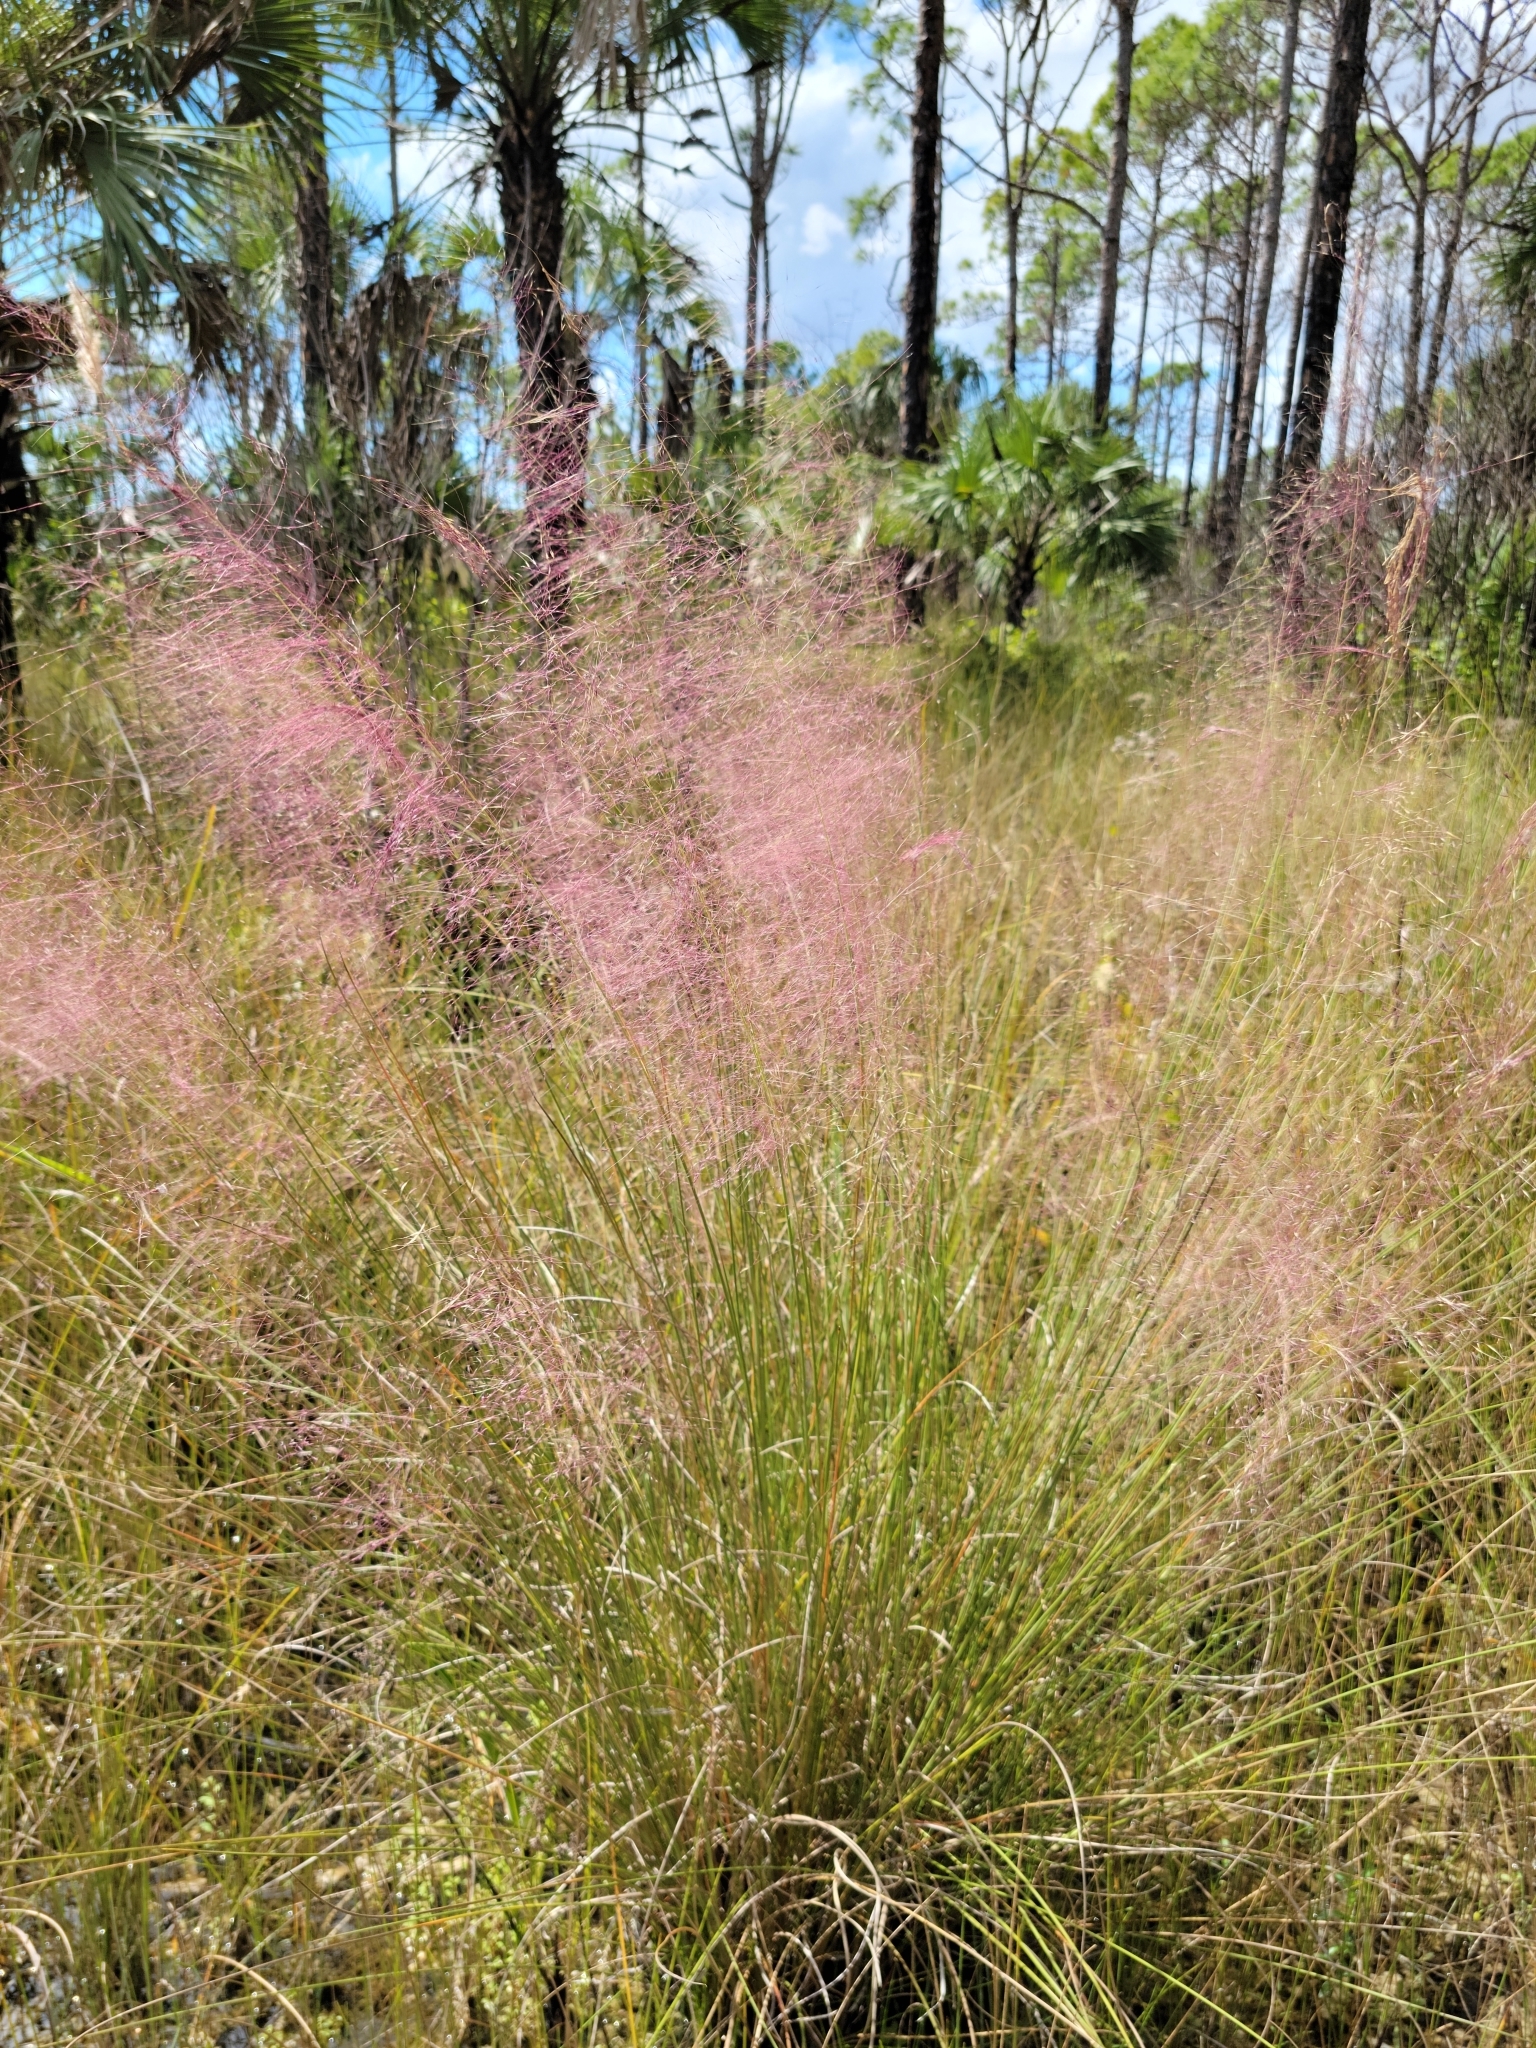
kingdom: Plantae
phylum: Tracheophyta
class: Liliopsida
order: Poales
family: Poaceae
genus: Muhlenbergia
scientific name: Muhlenbergia sericea
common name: Dune-hair grass
